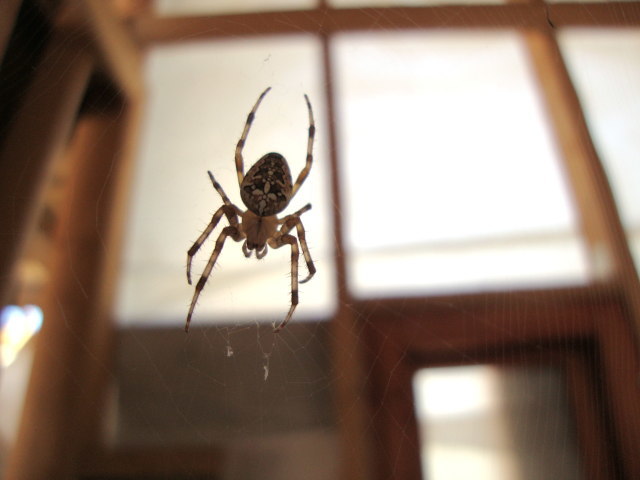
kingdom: Animalia
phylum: Arthropoda
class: Arachnida
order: Araneae
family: Araneidae
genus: Araneus
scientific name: Araneus diadematus
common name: Cross orbweaver
